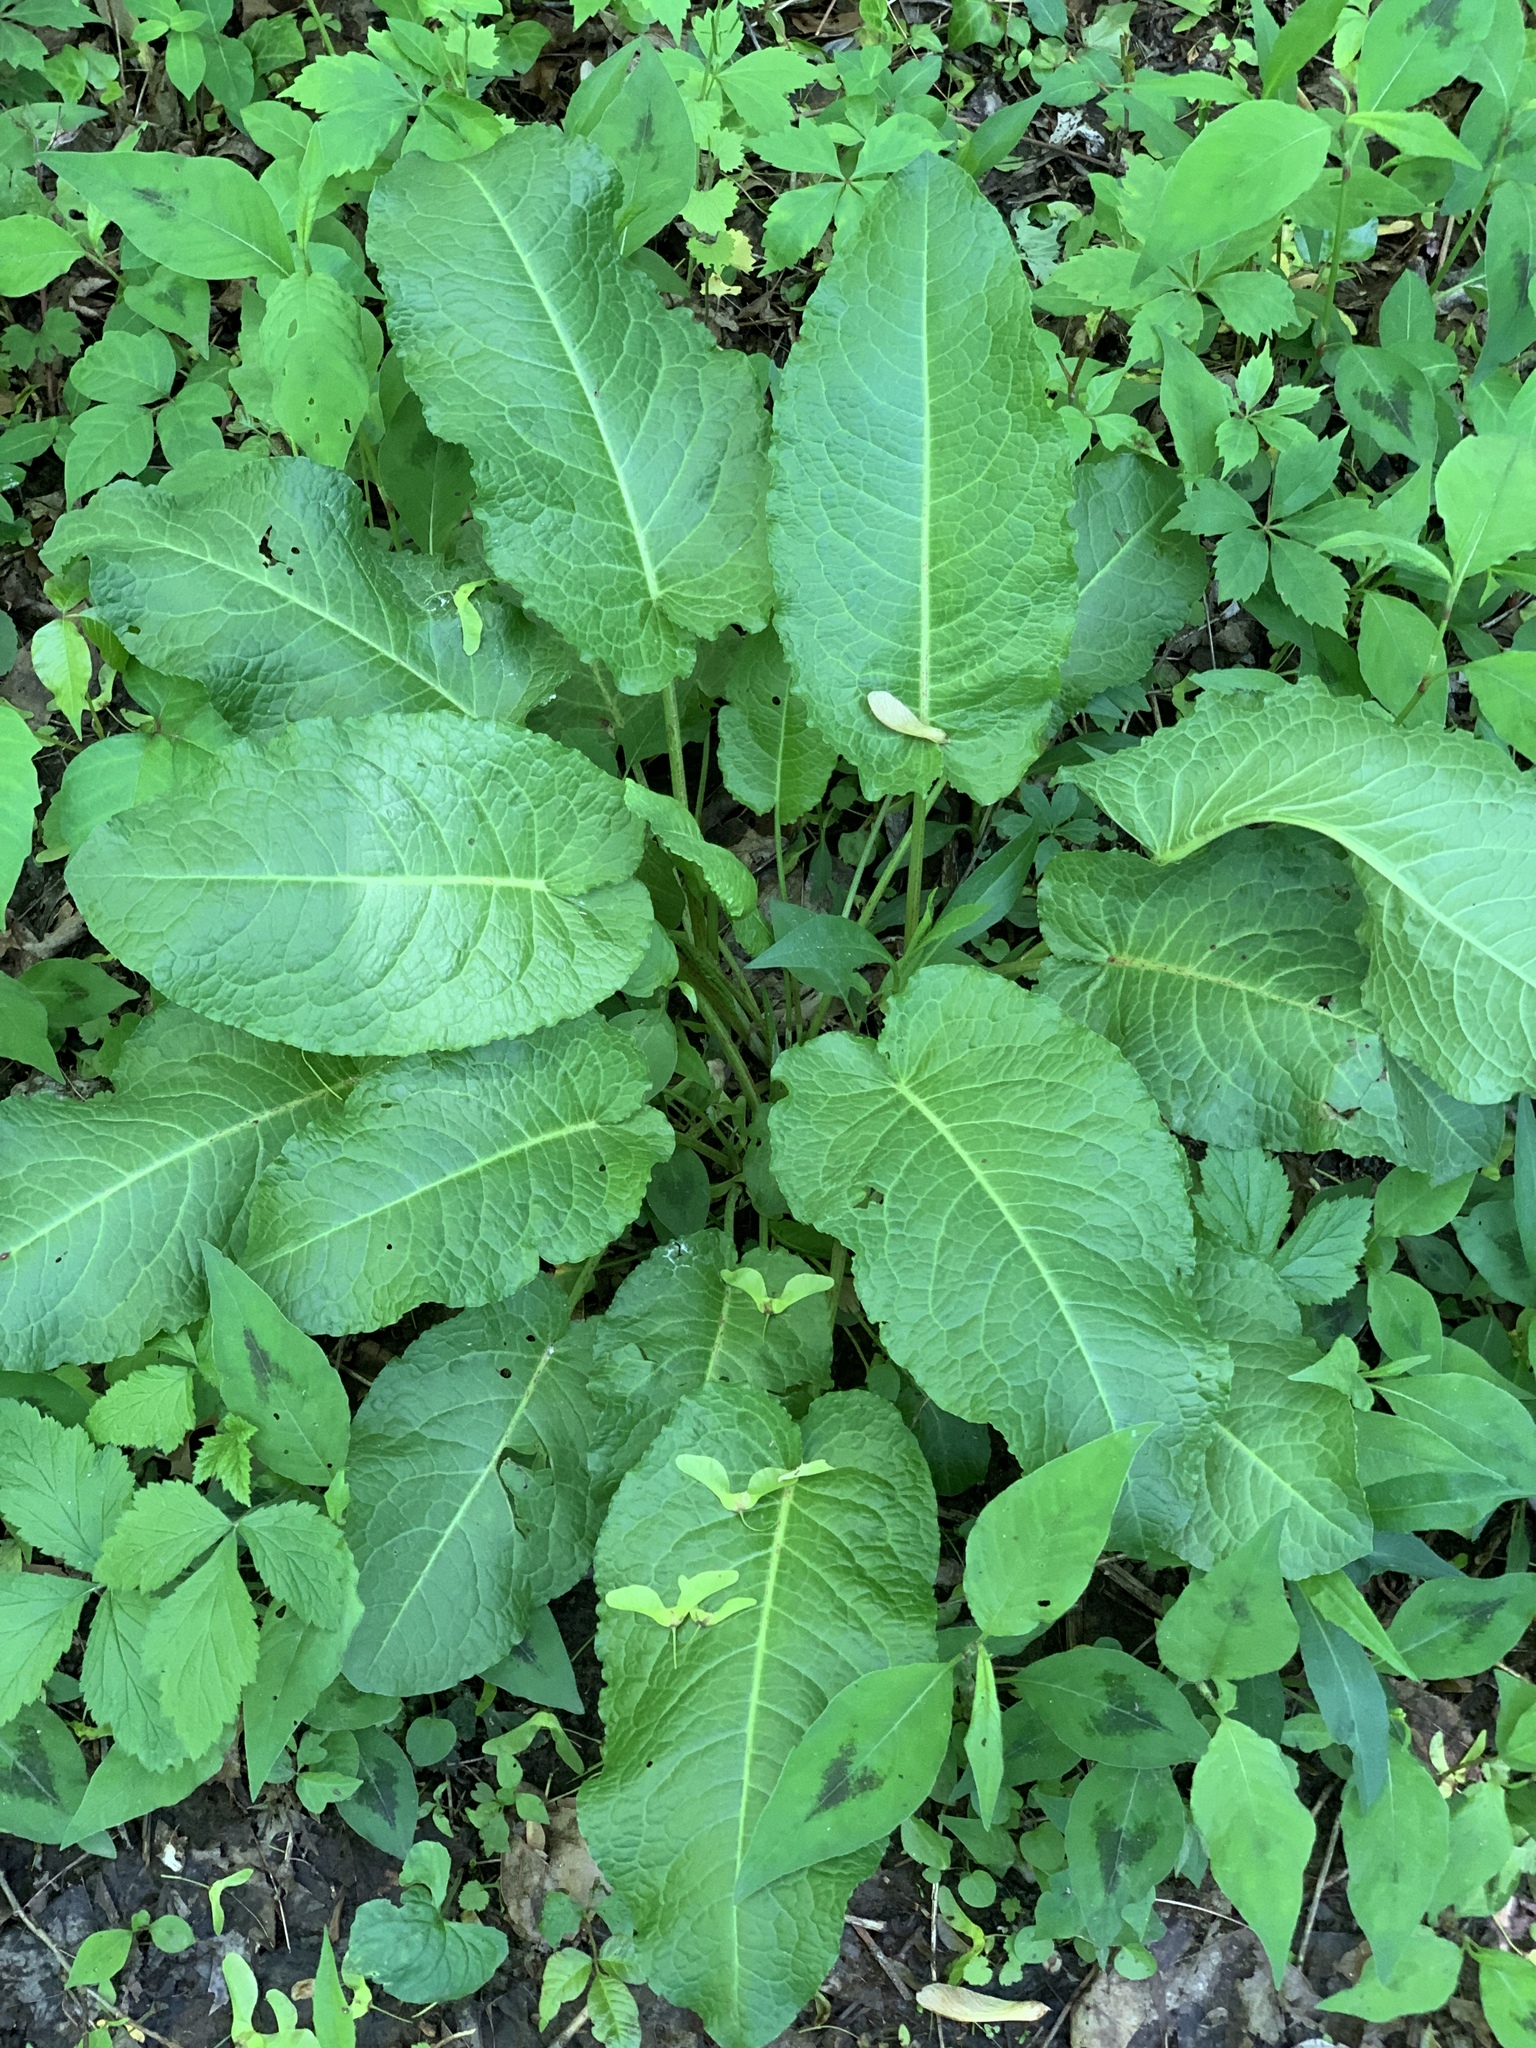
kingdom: Plantae
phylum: Tracheophyta
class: Magnoliopsida
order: Caryophyllales
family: Polygonaceae
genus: Rumex
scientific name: Rumex obtusifolius
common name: Bitter dock
